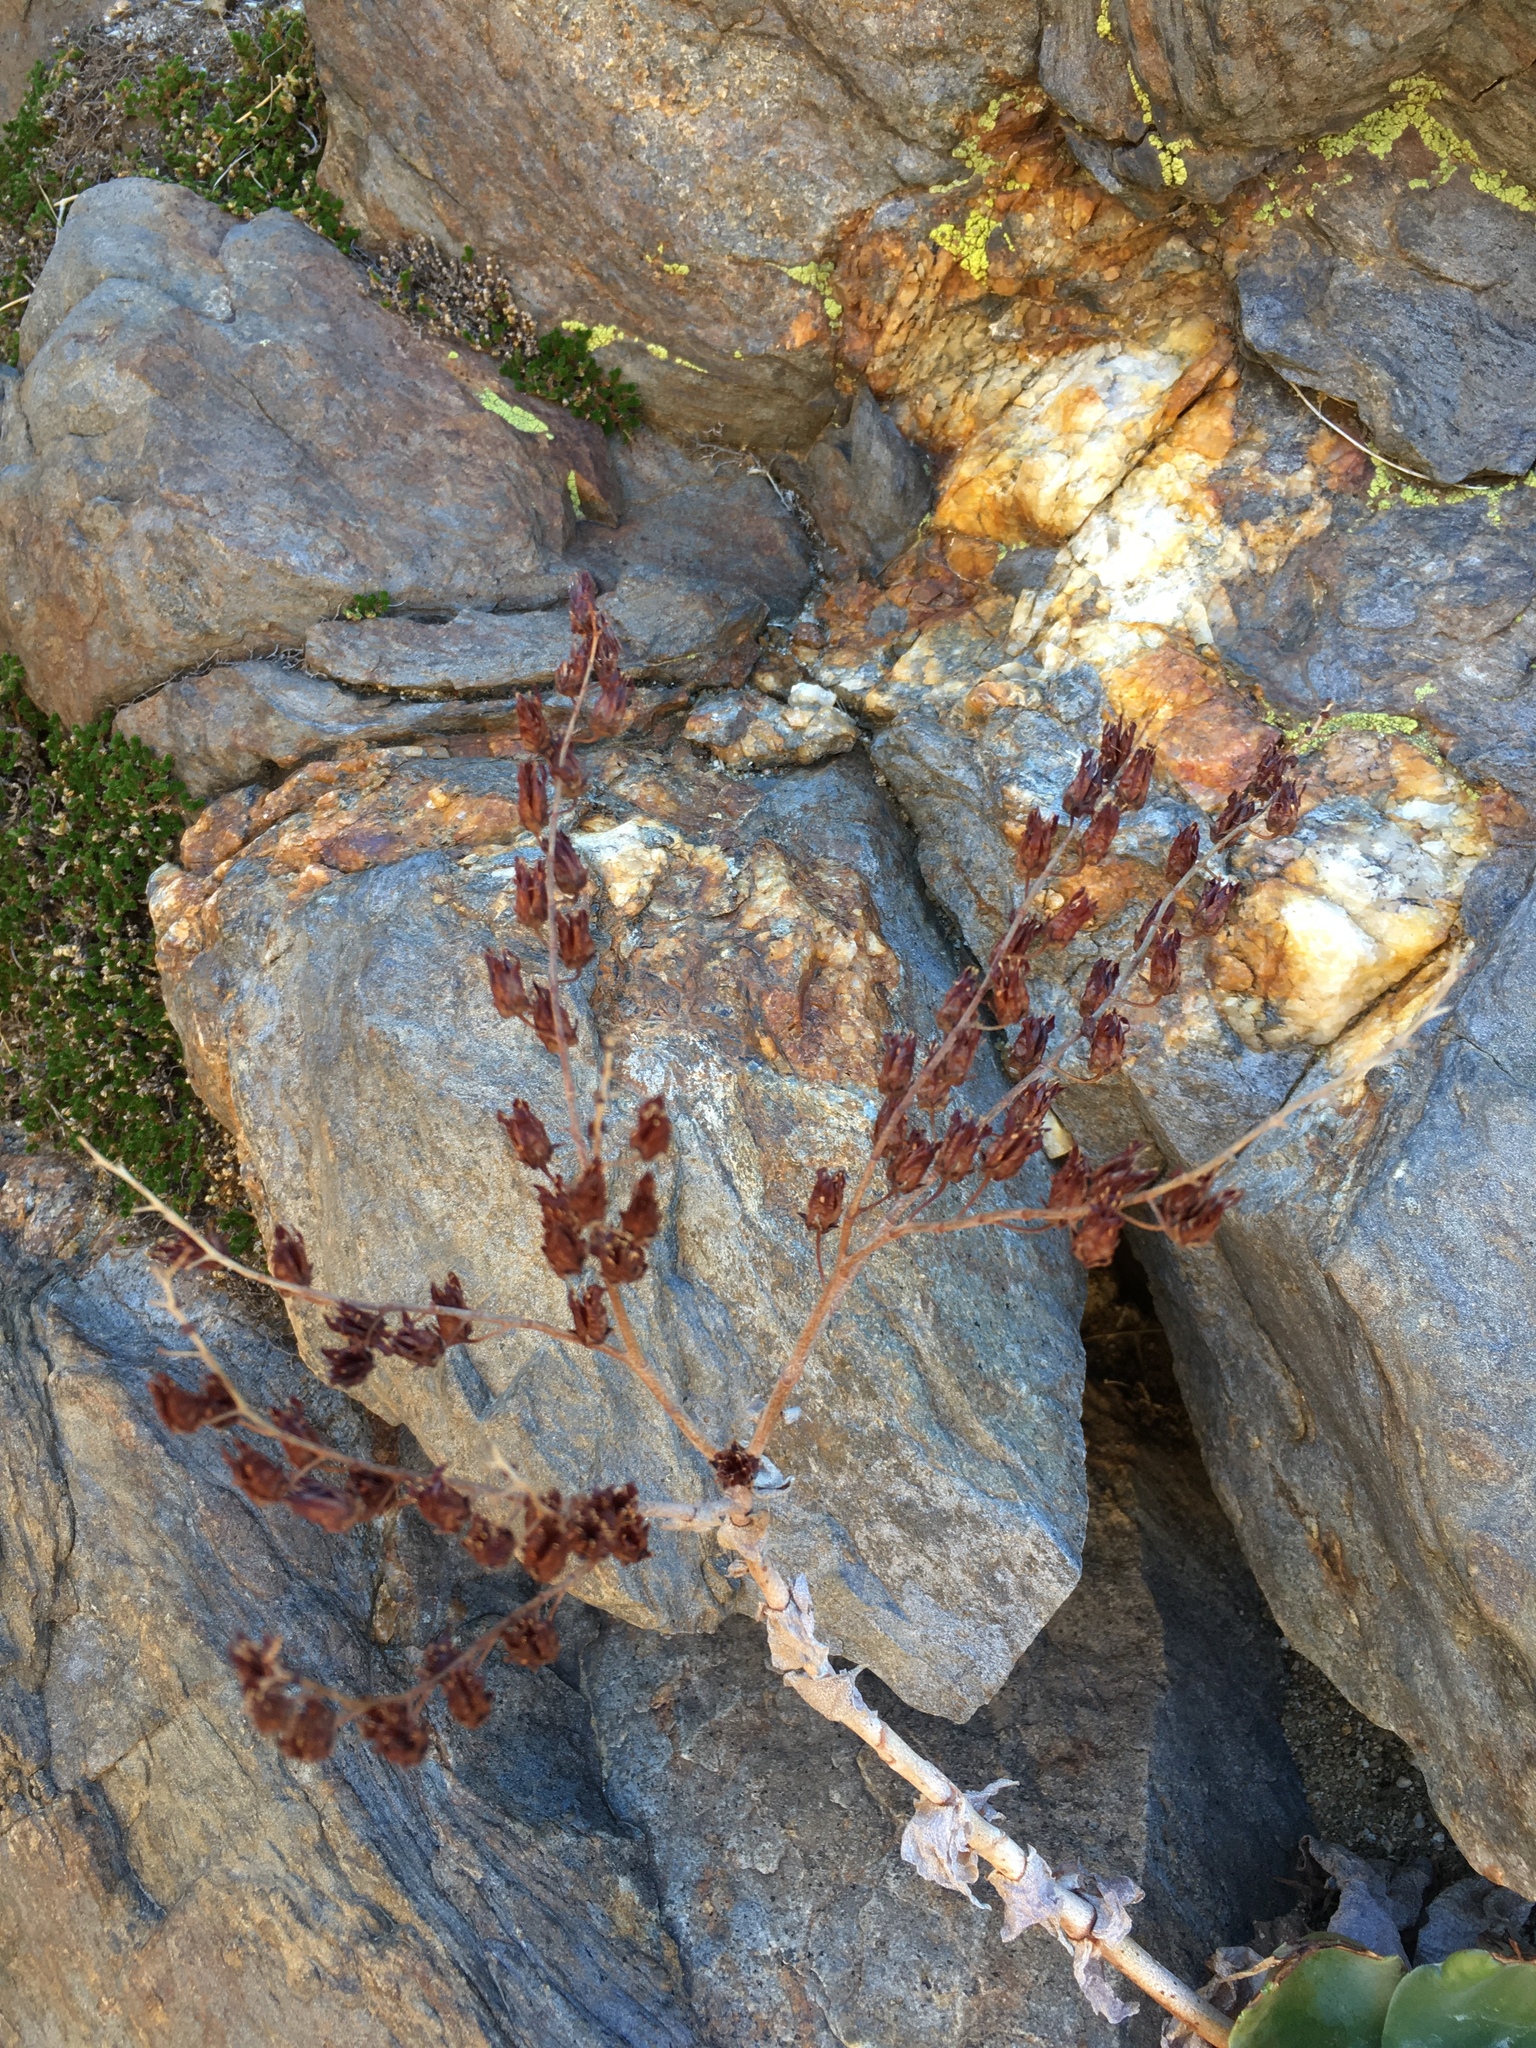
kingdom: Plantae
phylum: Tracheophyta
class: Magnoliopsida
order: Saxifragales
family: Crassulaceae
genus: Dudleya
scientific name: Dudleya arizonica
